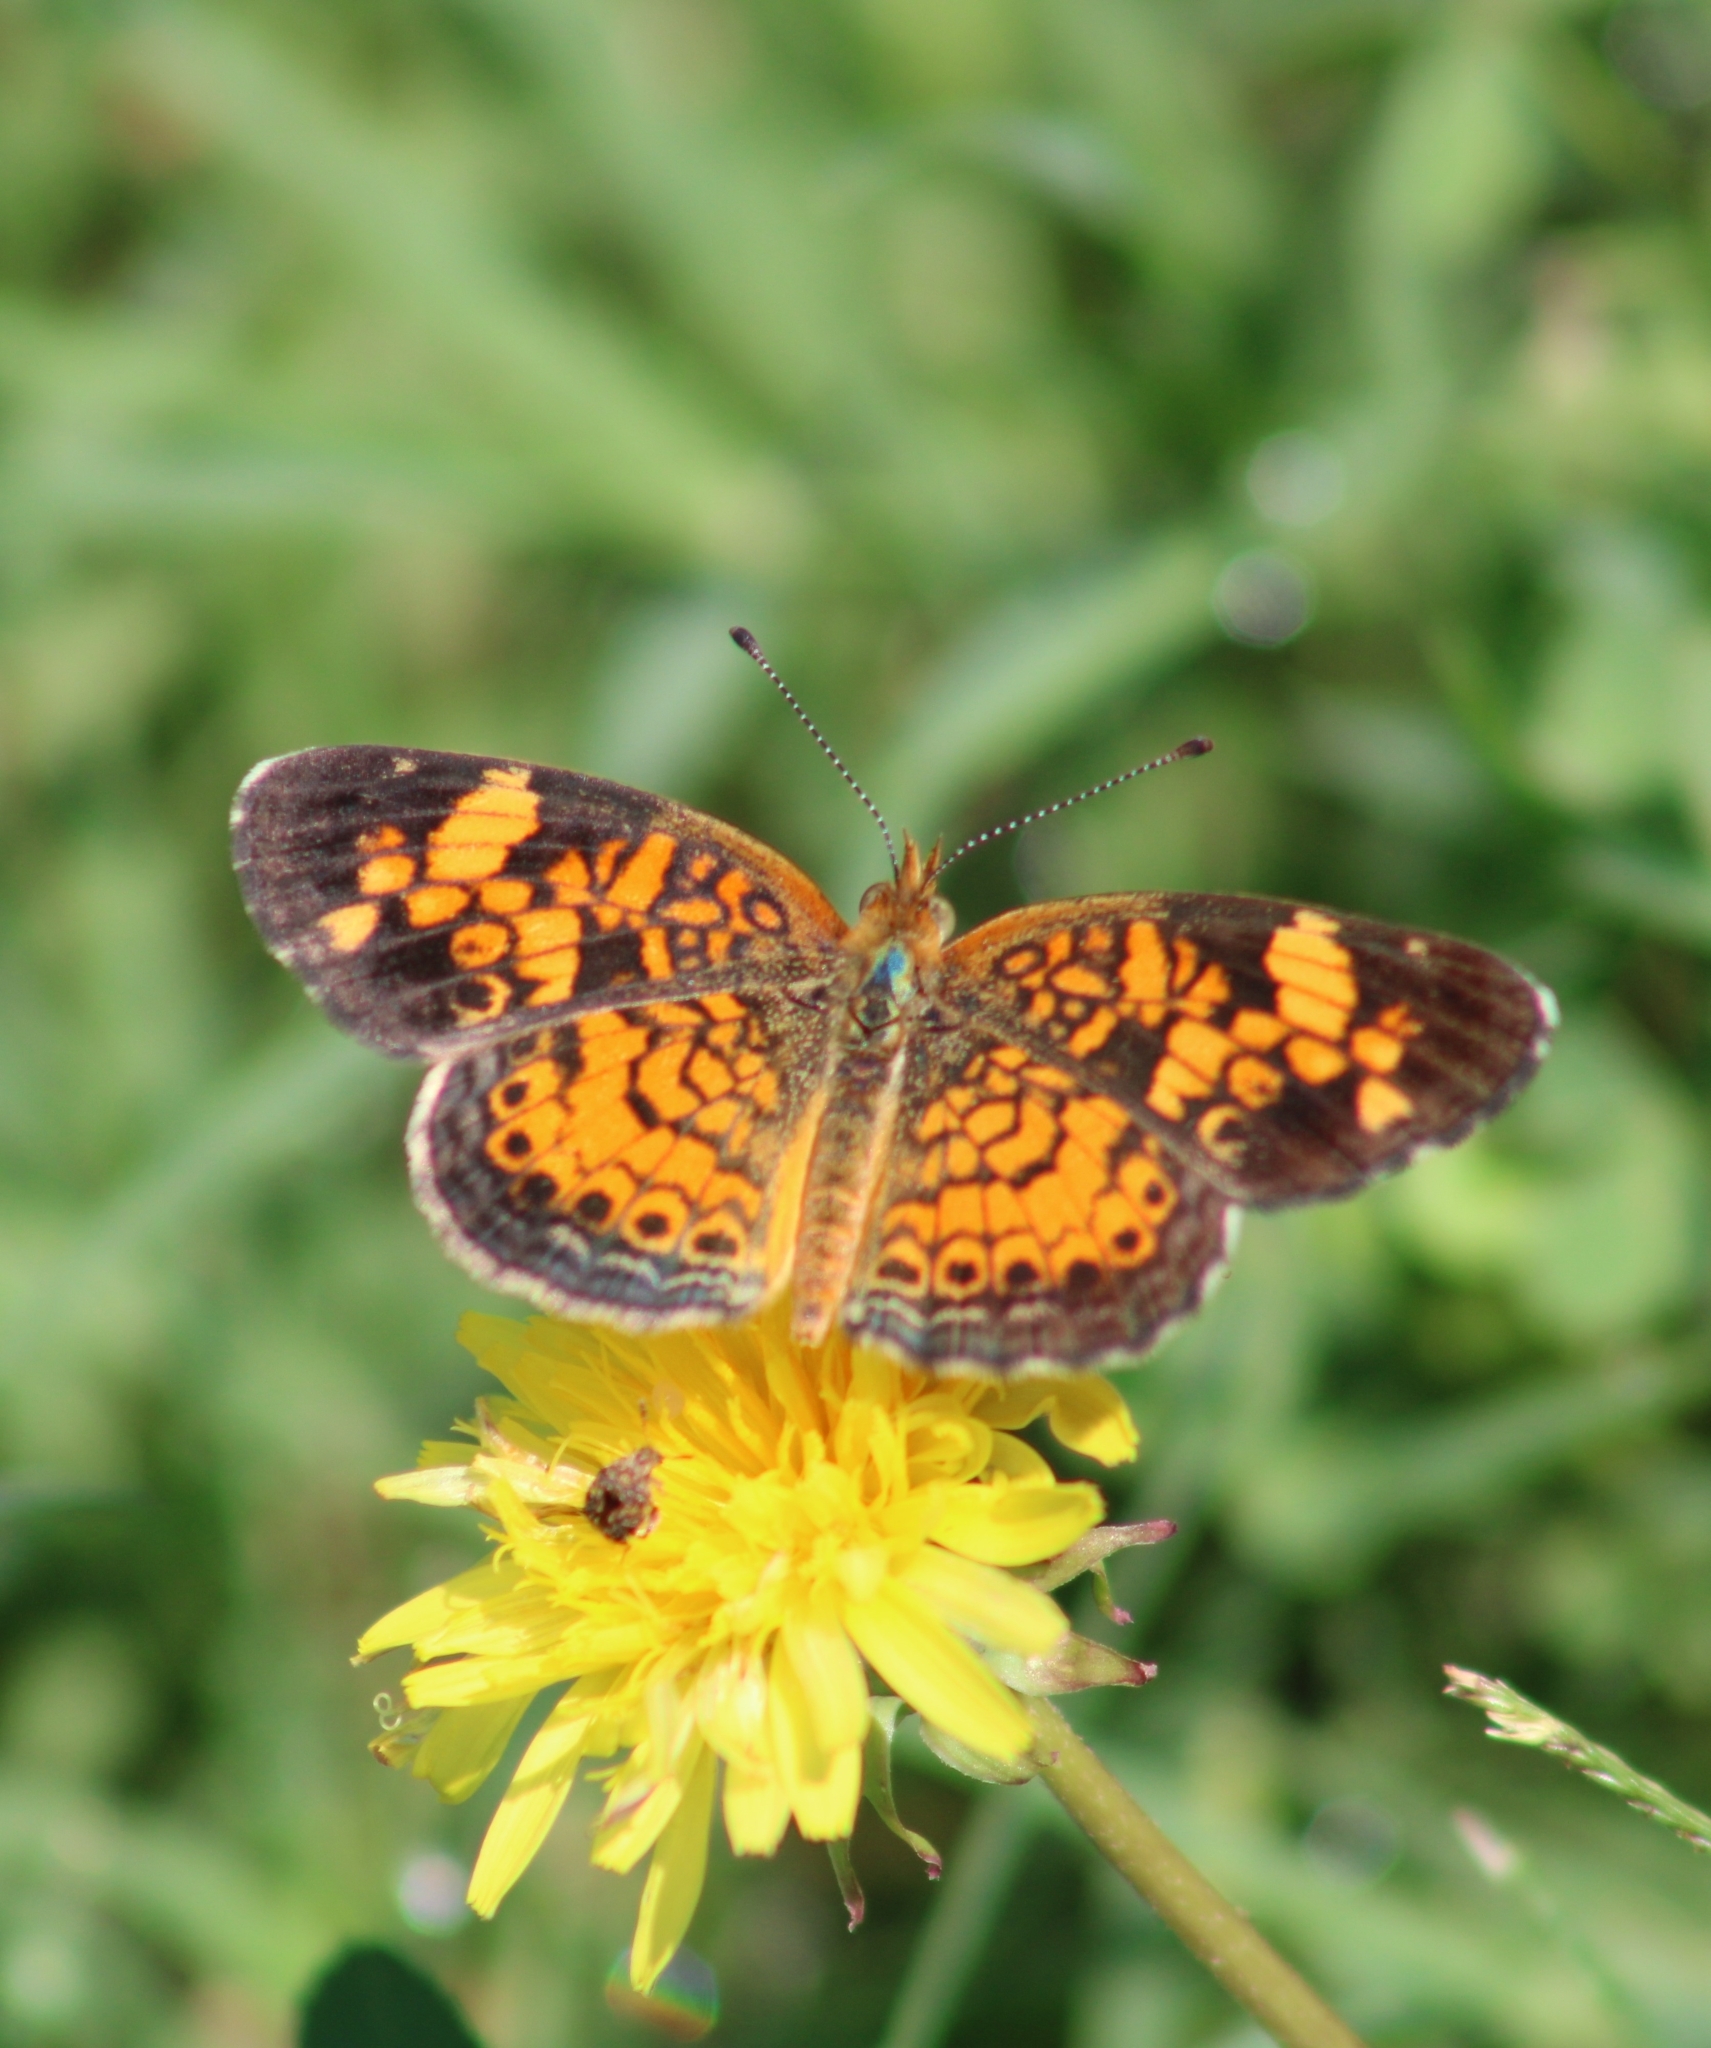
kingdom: Animalia
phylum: Arthropoda
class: Insecta
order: Lepidoptera
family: Nymphalidae
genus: Phyciodes
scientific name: Phyciodes tharos
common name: Pearl crescent
